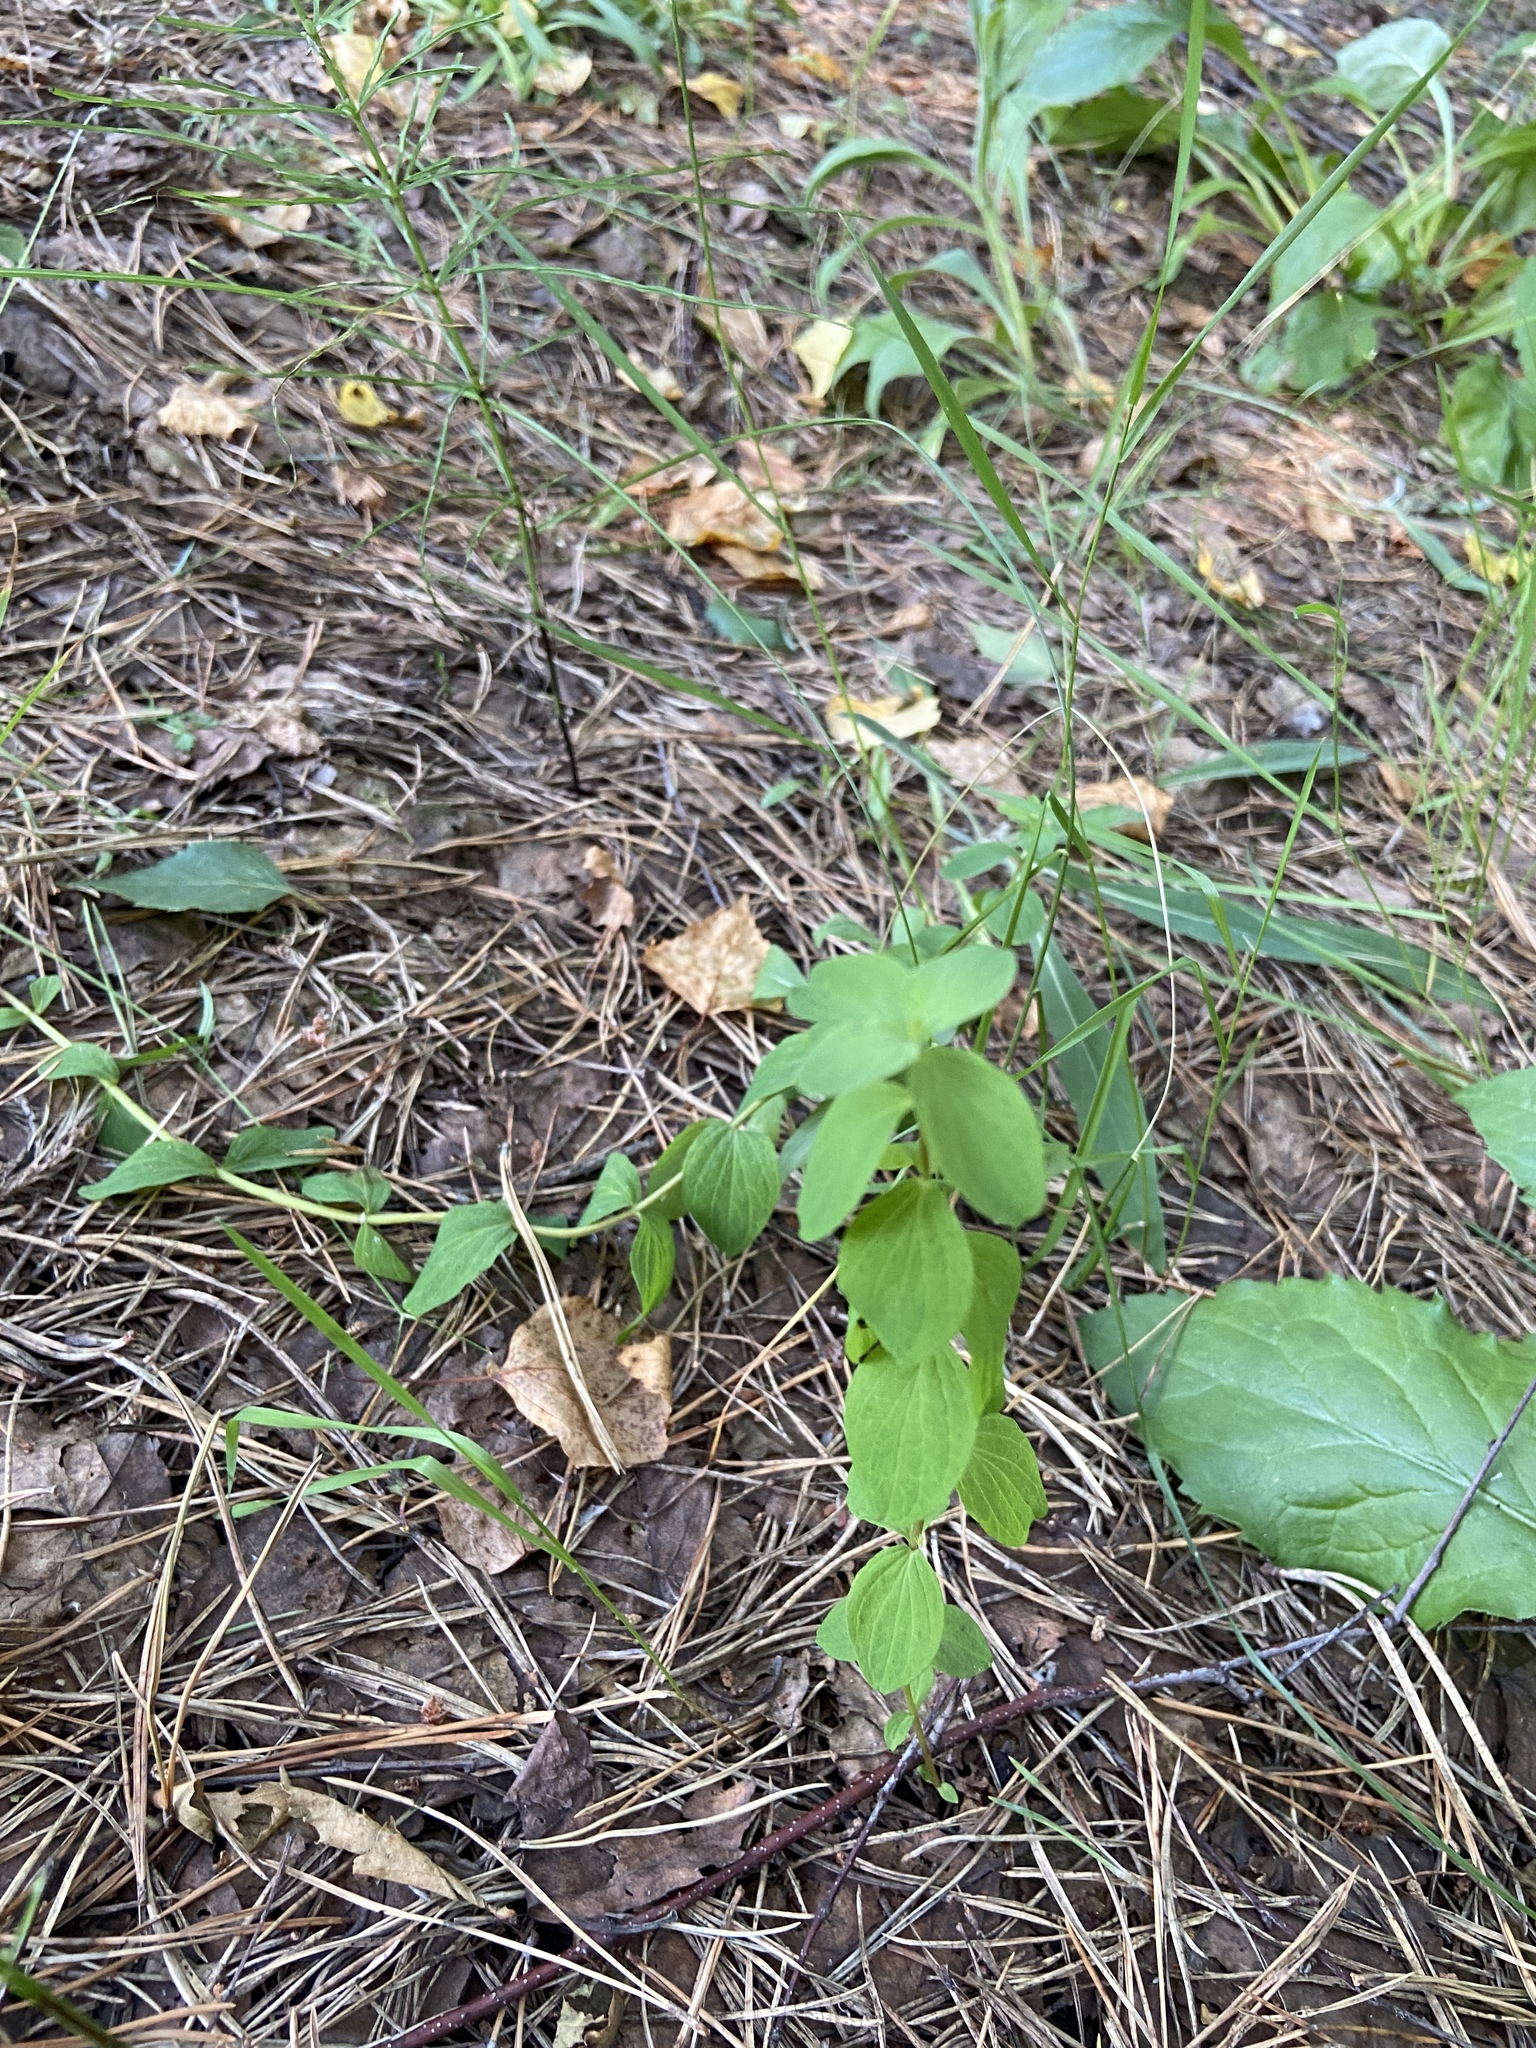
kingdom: Plantae
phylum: Tracheophyta
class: Magnoliopsida
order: Malpighiales
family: Hypericaceae
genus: Hypericum
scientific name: Hypericum maculatum
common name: Imperforate st. john's-wort
